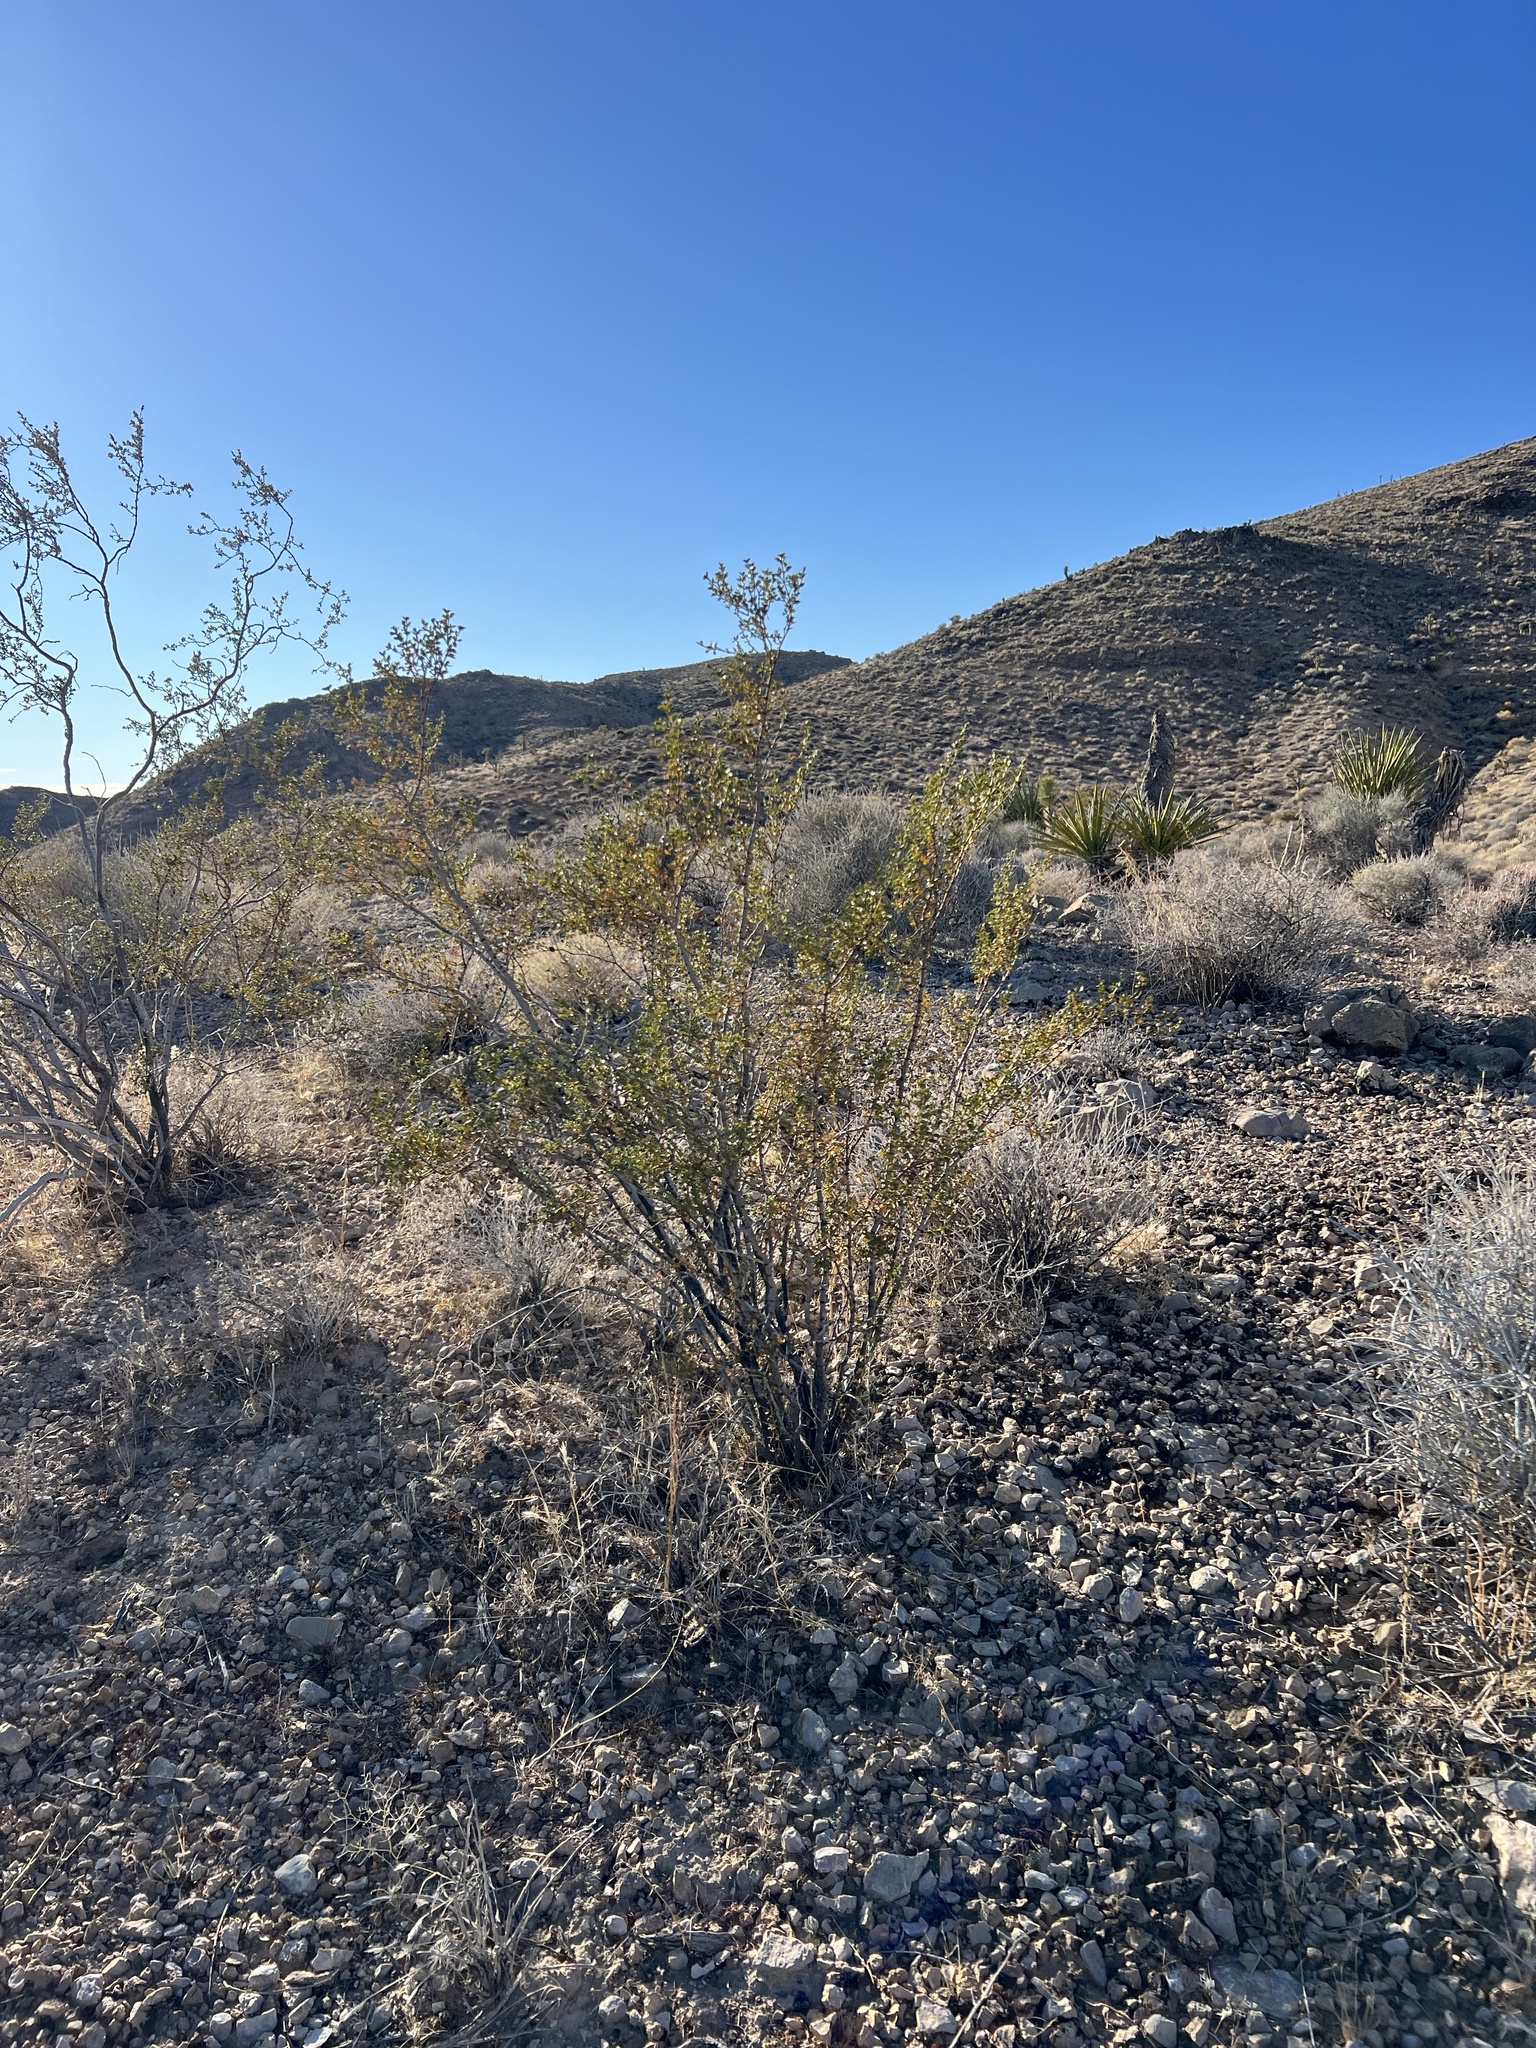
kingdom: Plantae
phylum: Tracheophyta
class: Magnoliopsida
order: Zygophyllales
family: Zygophyllaceae
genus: Larrea
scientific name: Larrea tridentata
